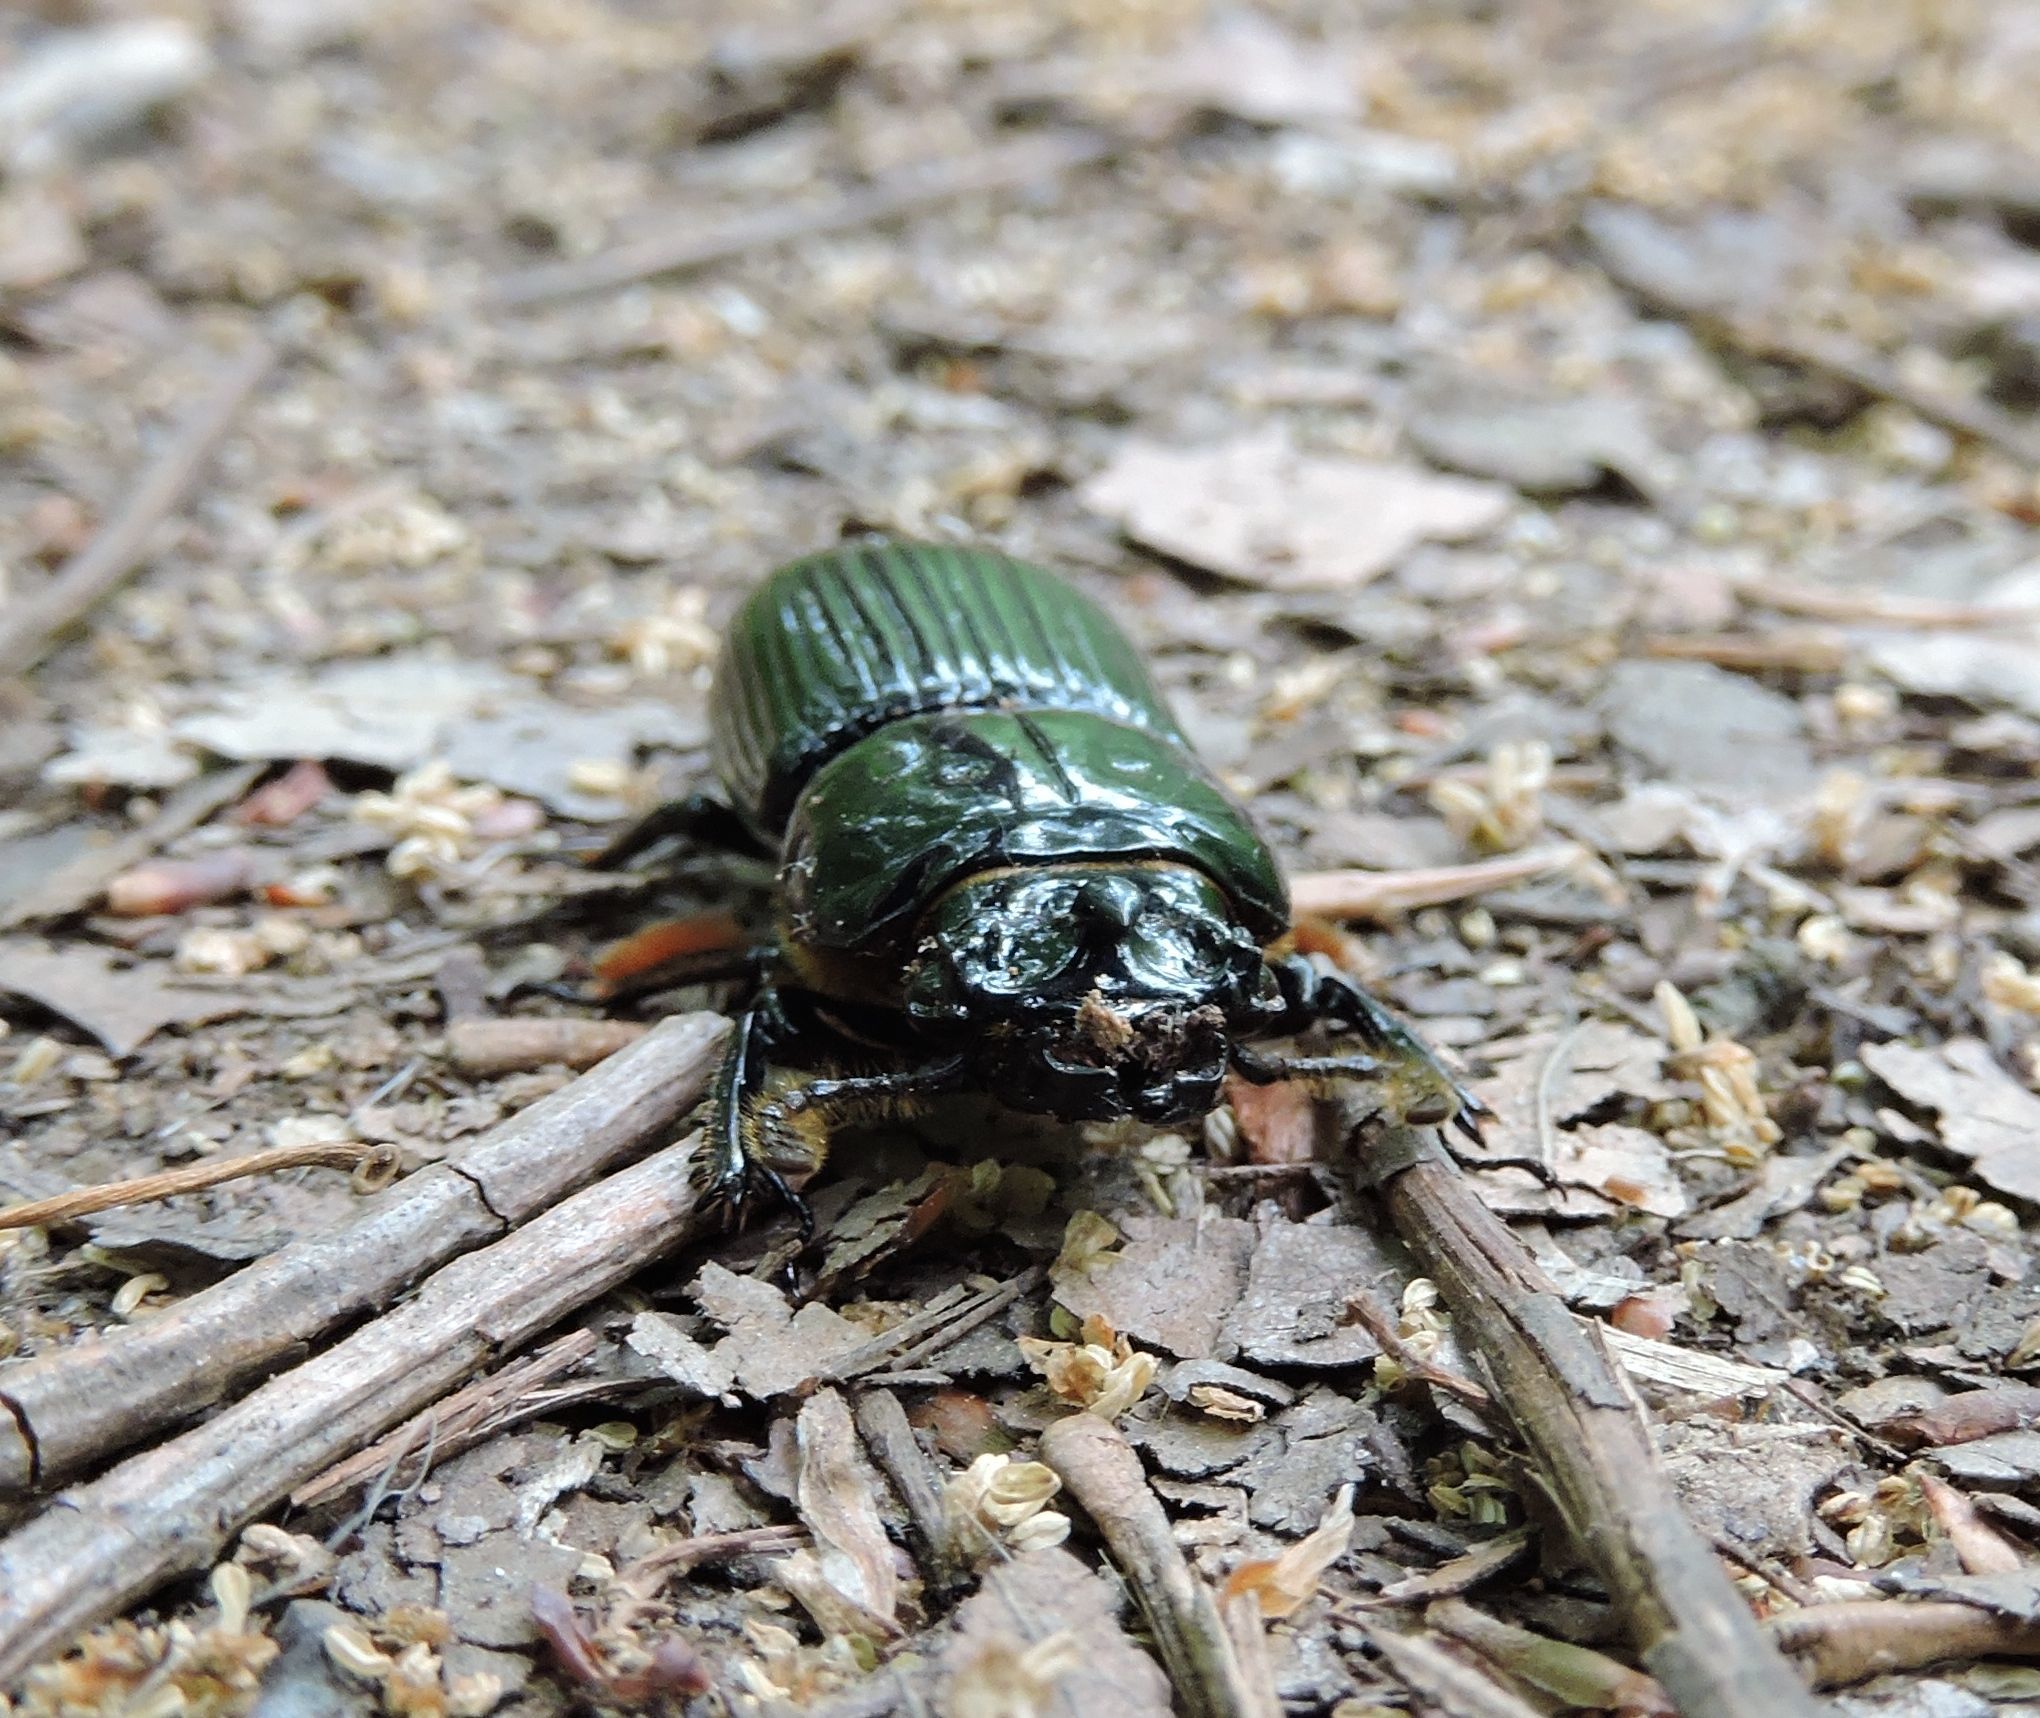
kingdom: Animalia
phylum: Arthropoda
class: Insecta
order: Coleoptera
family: Passalidae
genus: Odontotaenius
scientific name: Odontotaenius disjunctus
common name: Patent leather beetle
